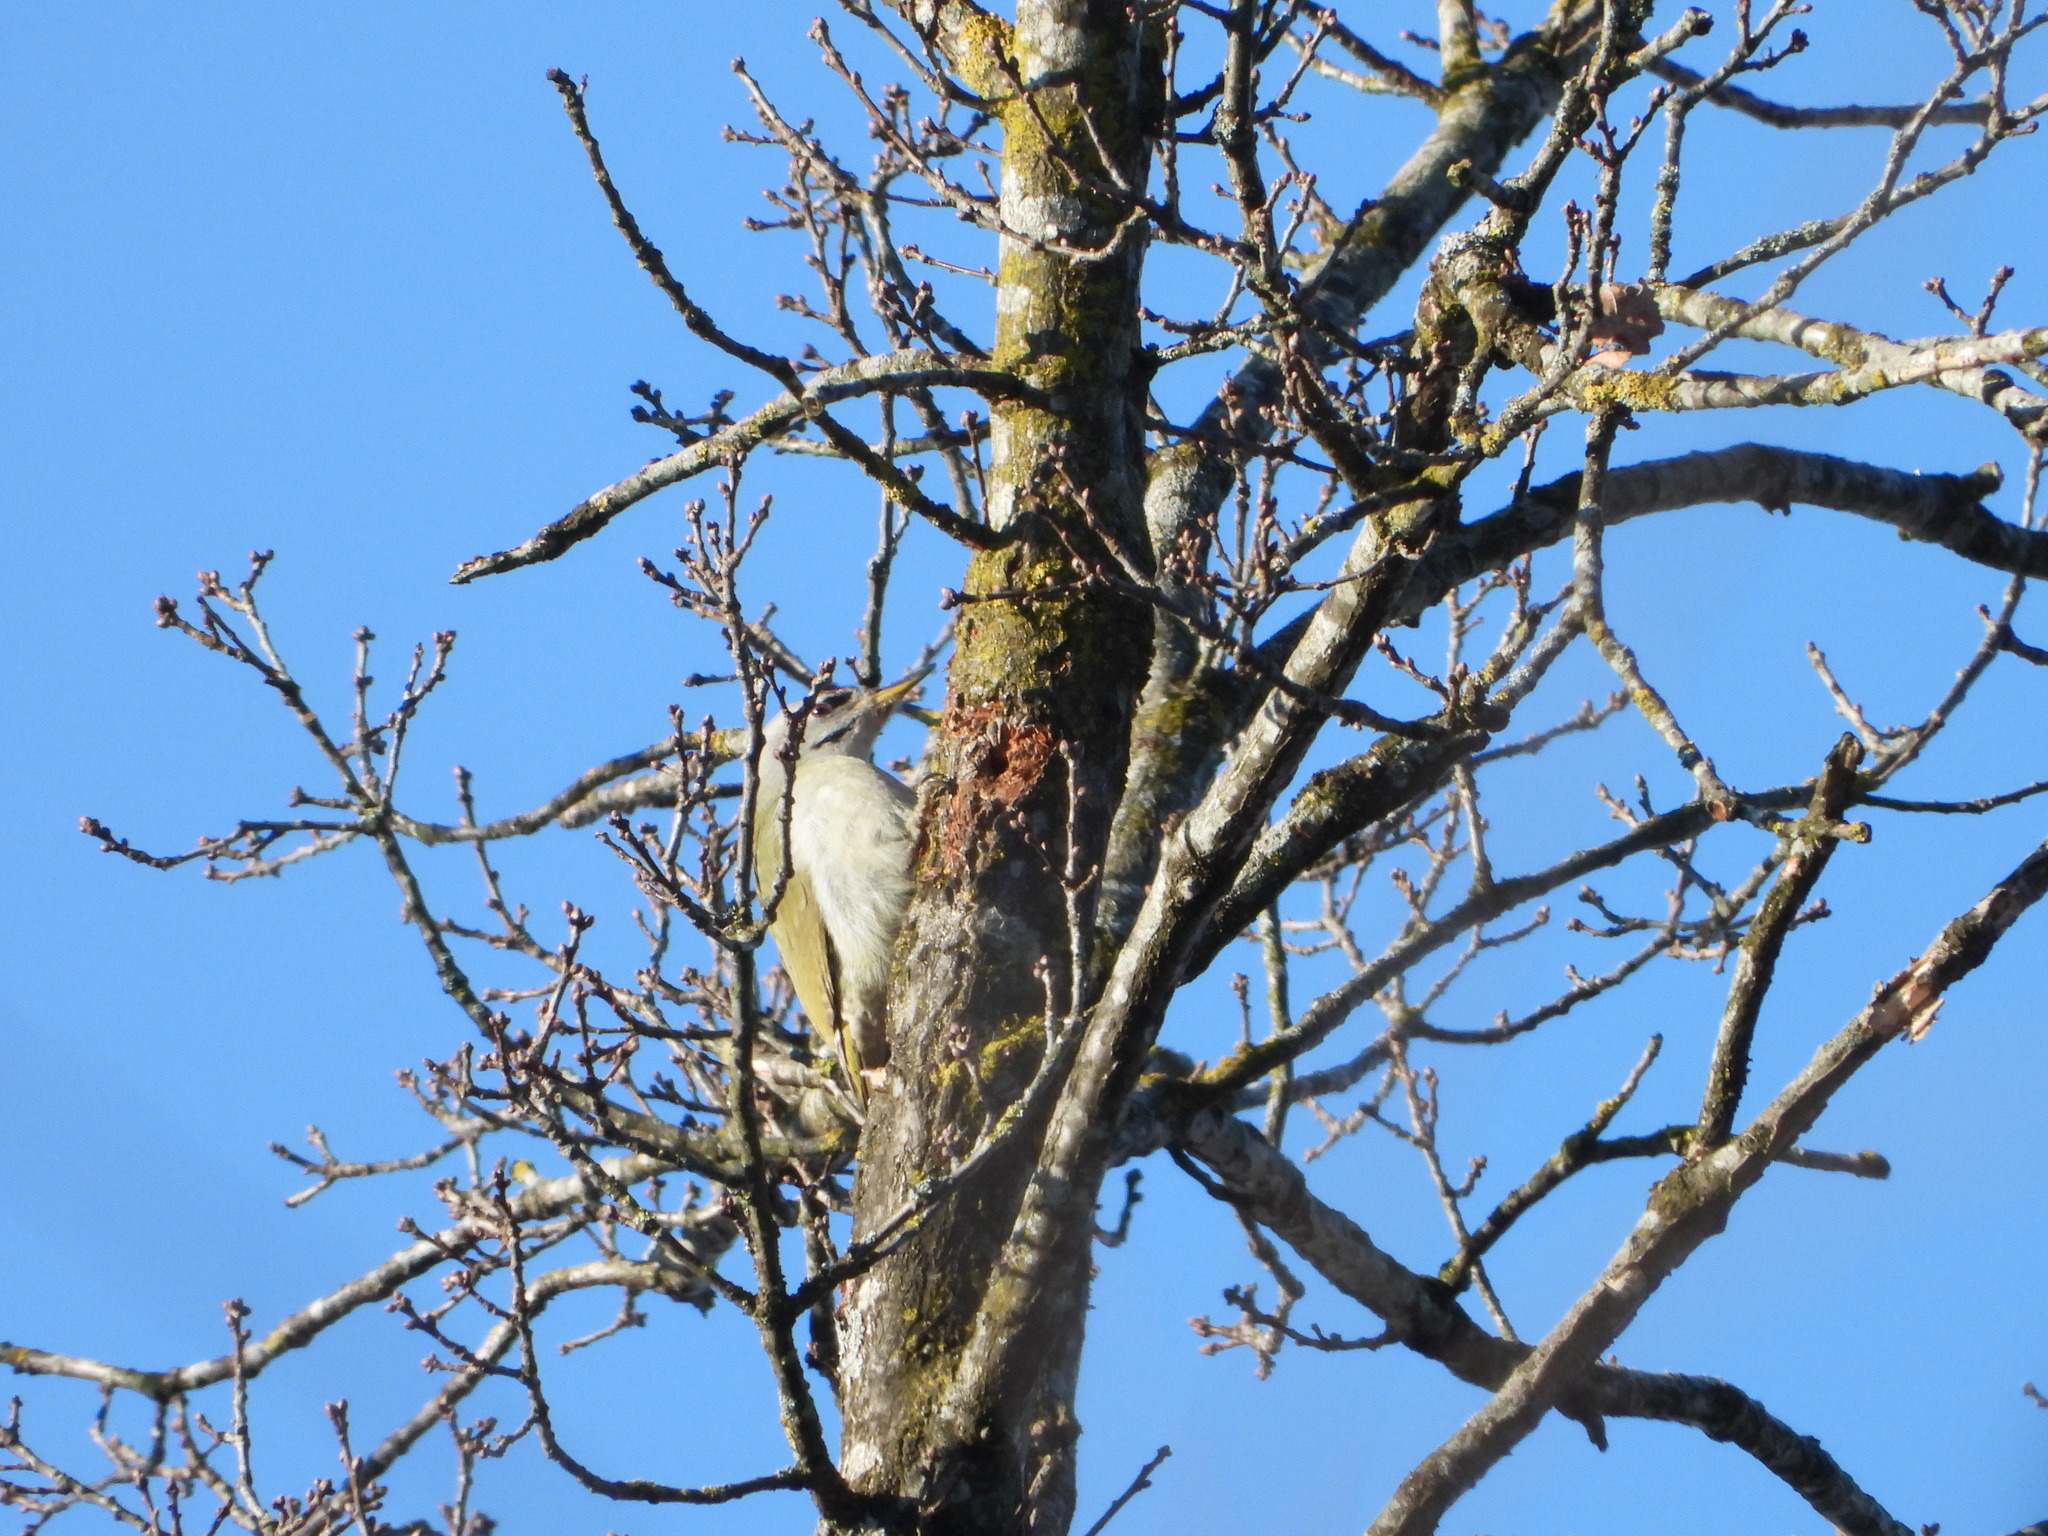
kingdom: Animalia
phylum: Chordata
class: Aves
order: Piciformes
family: Picidae
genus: Picus
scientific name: Picus canus
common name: Grey-headed woodpecker
